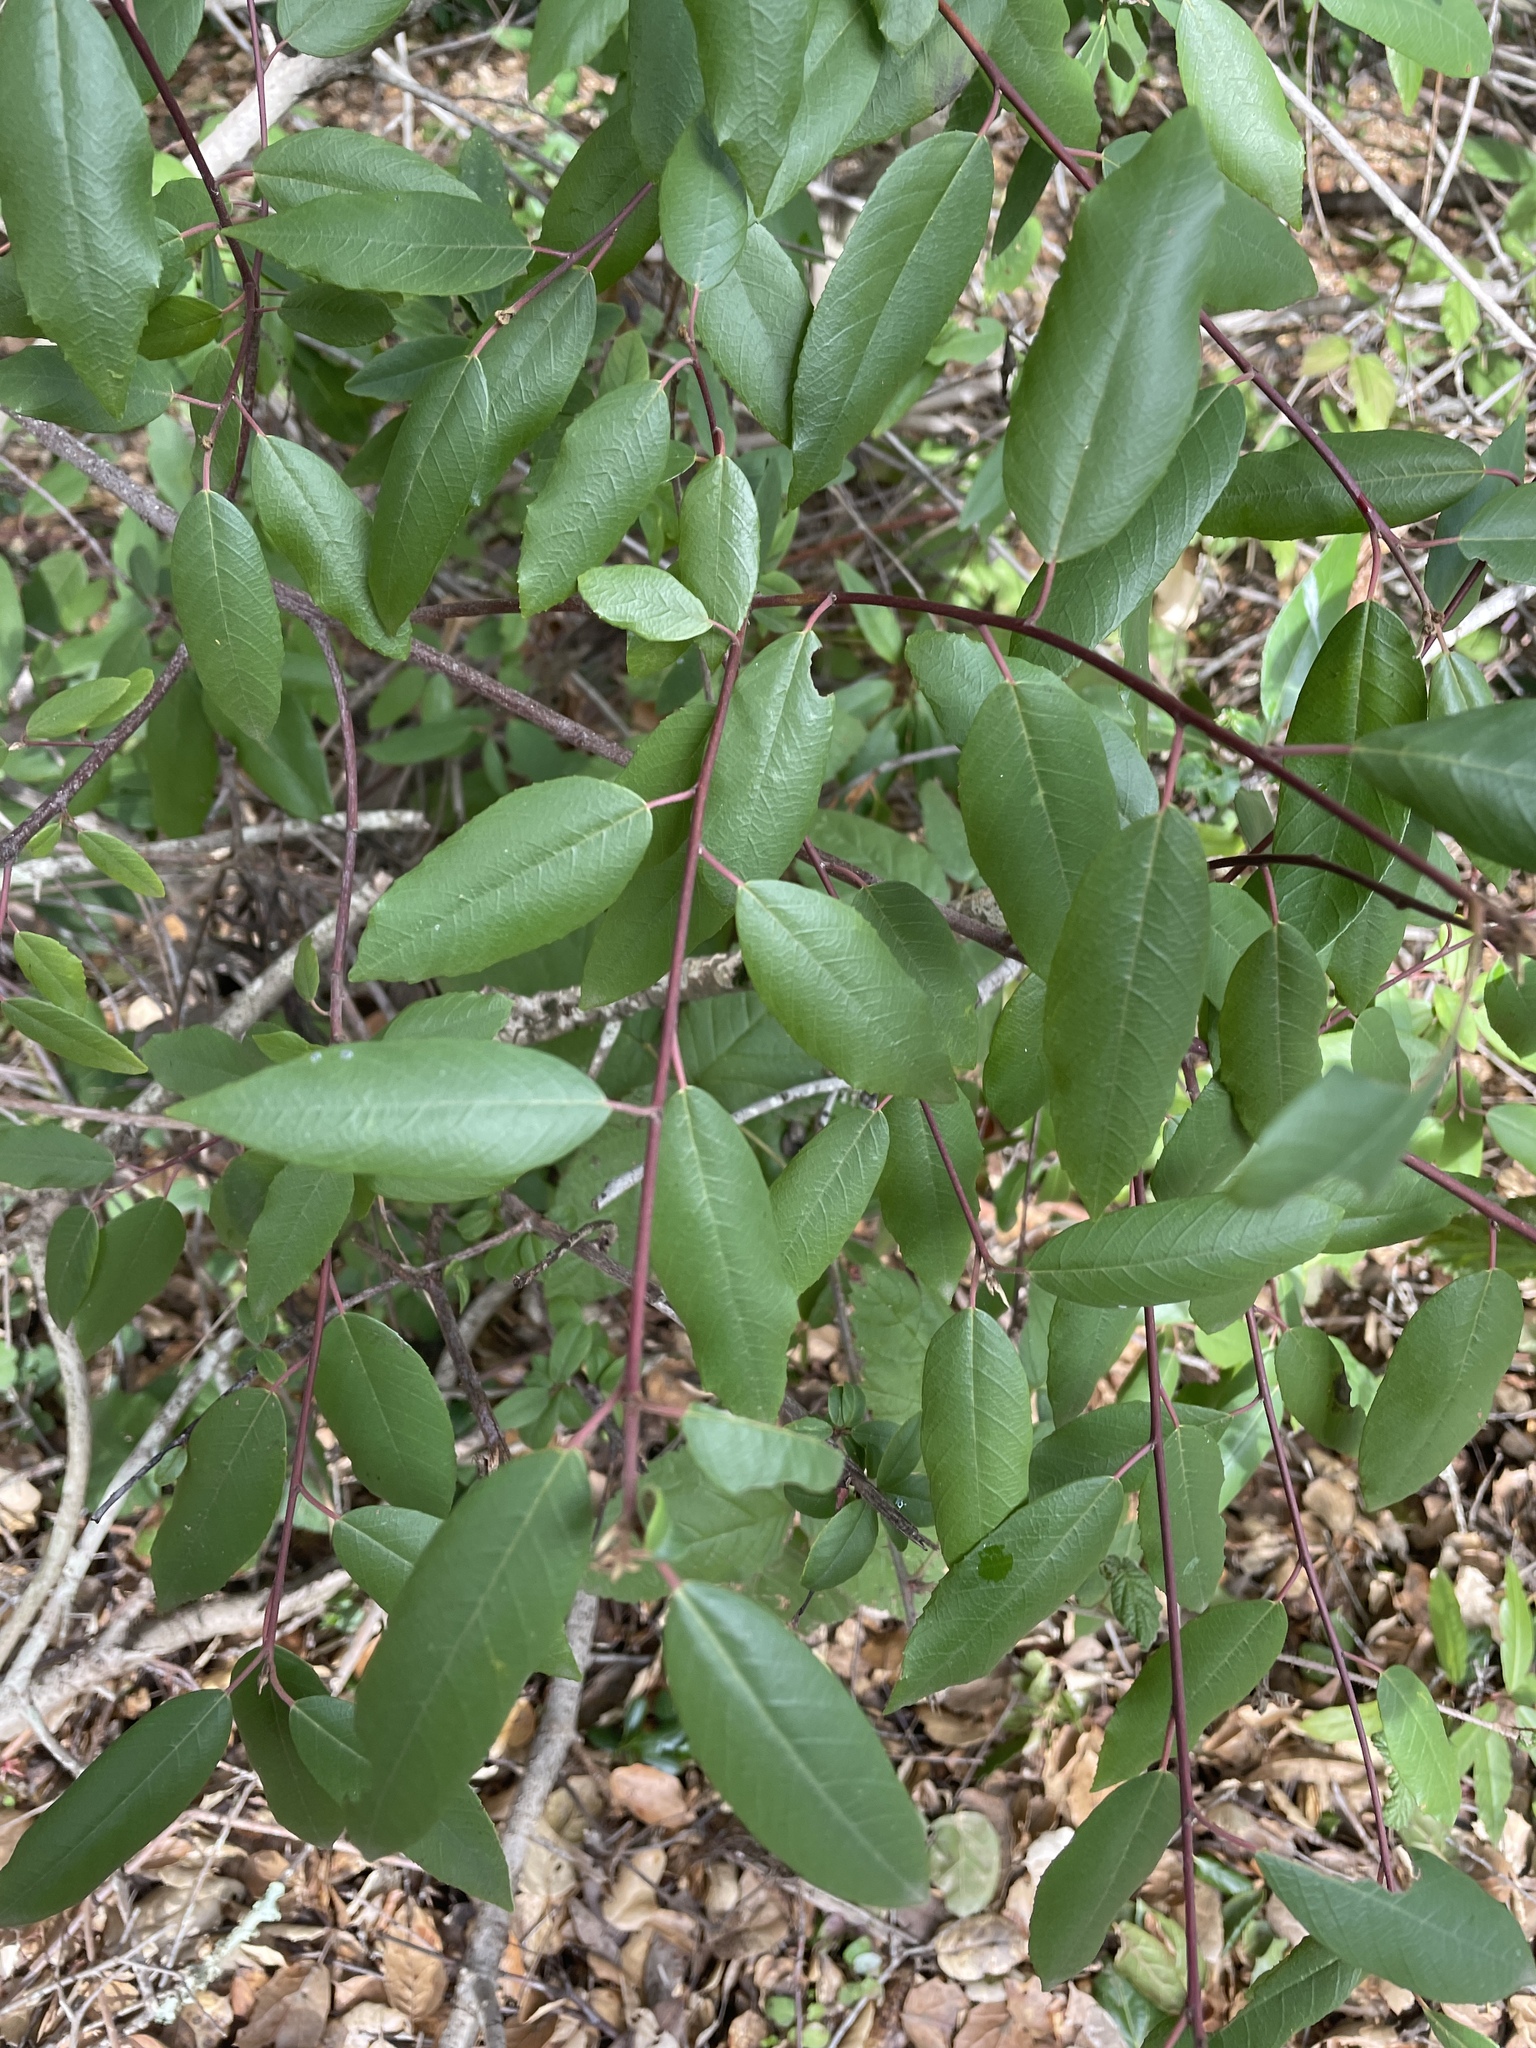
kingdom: Plantae
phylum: Tracheophyta
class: Magnoliopsida
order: Rosales
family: Rhamnaceae
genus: Frangula
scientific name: Frangula californica
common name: California buckthorn
